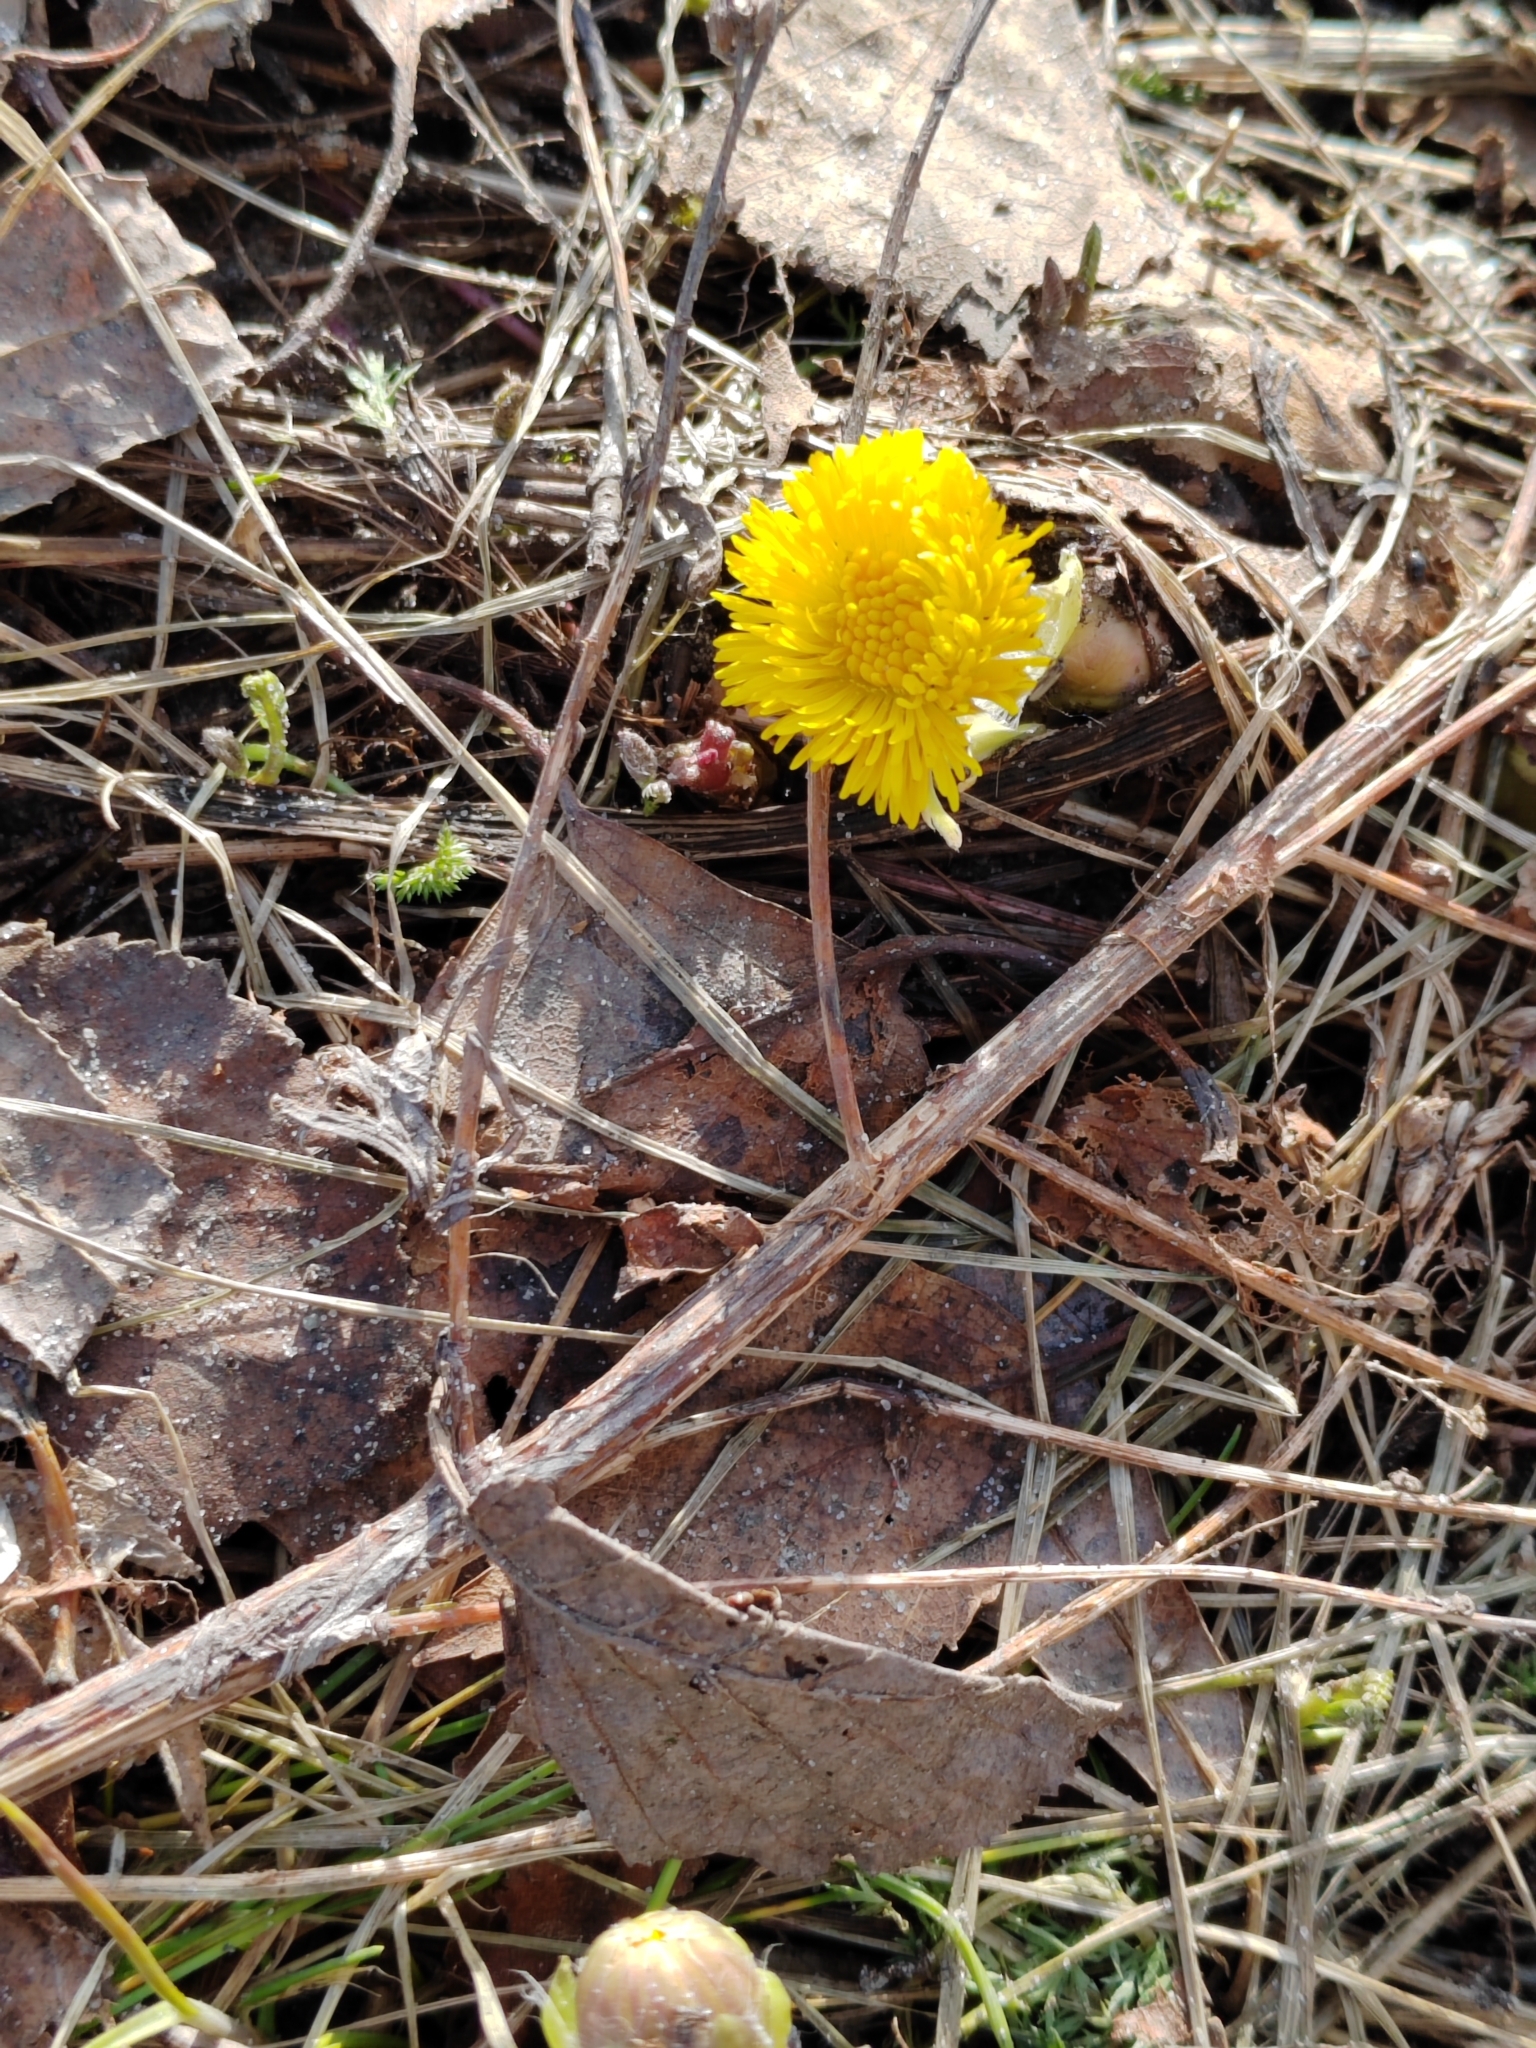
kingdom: Plantae
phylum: Tracheophyta
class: Magnoliopsida
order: Asterales
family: Asteraceae
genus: Tussilago
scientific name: Tussilago farfara
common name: Coltsfoot
